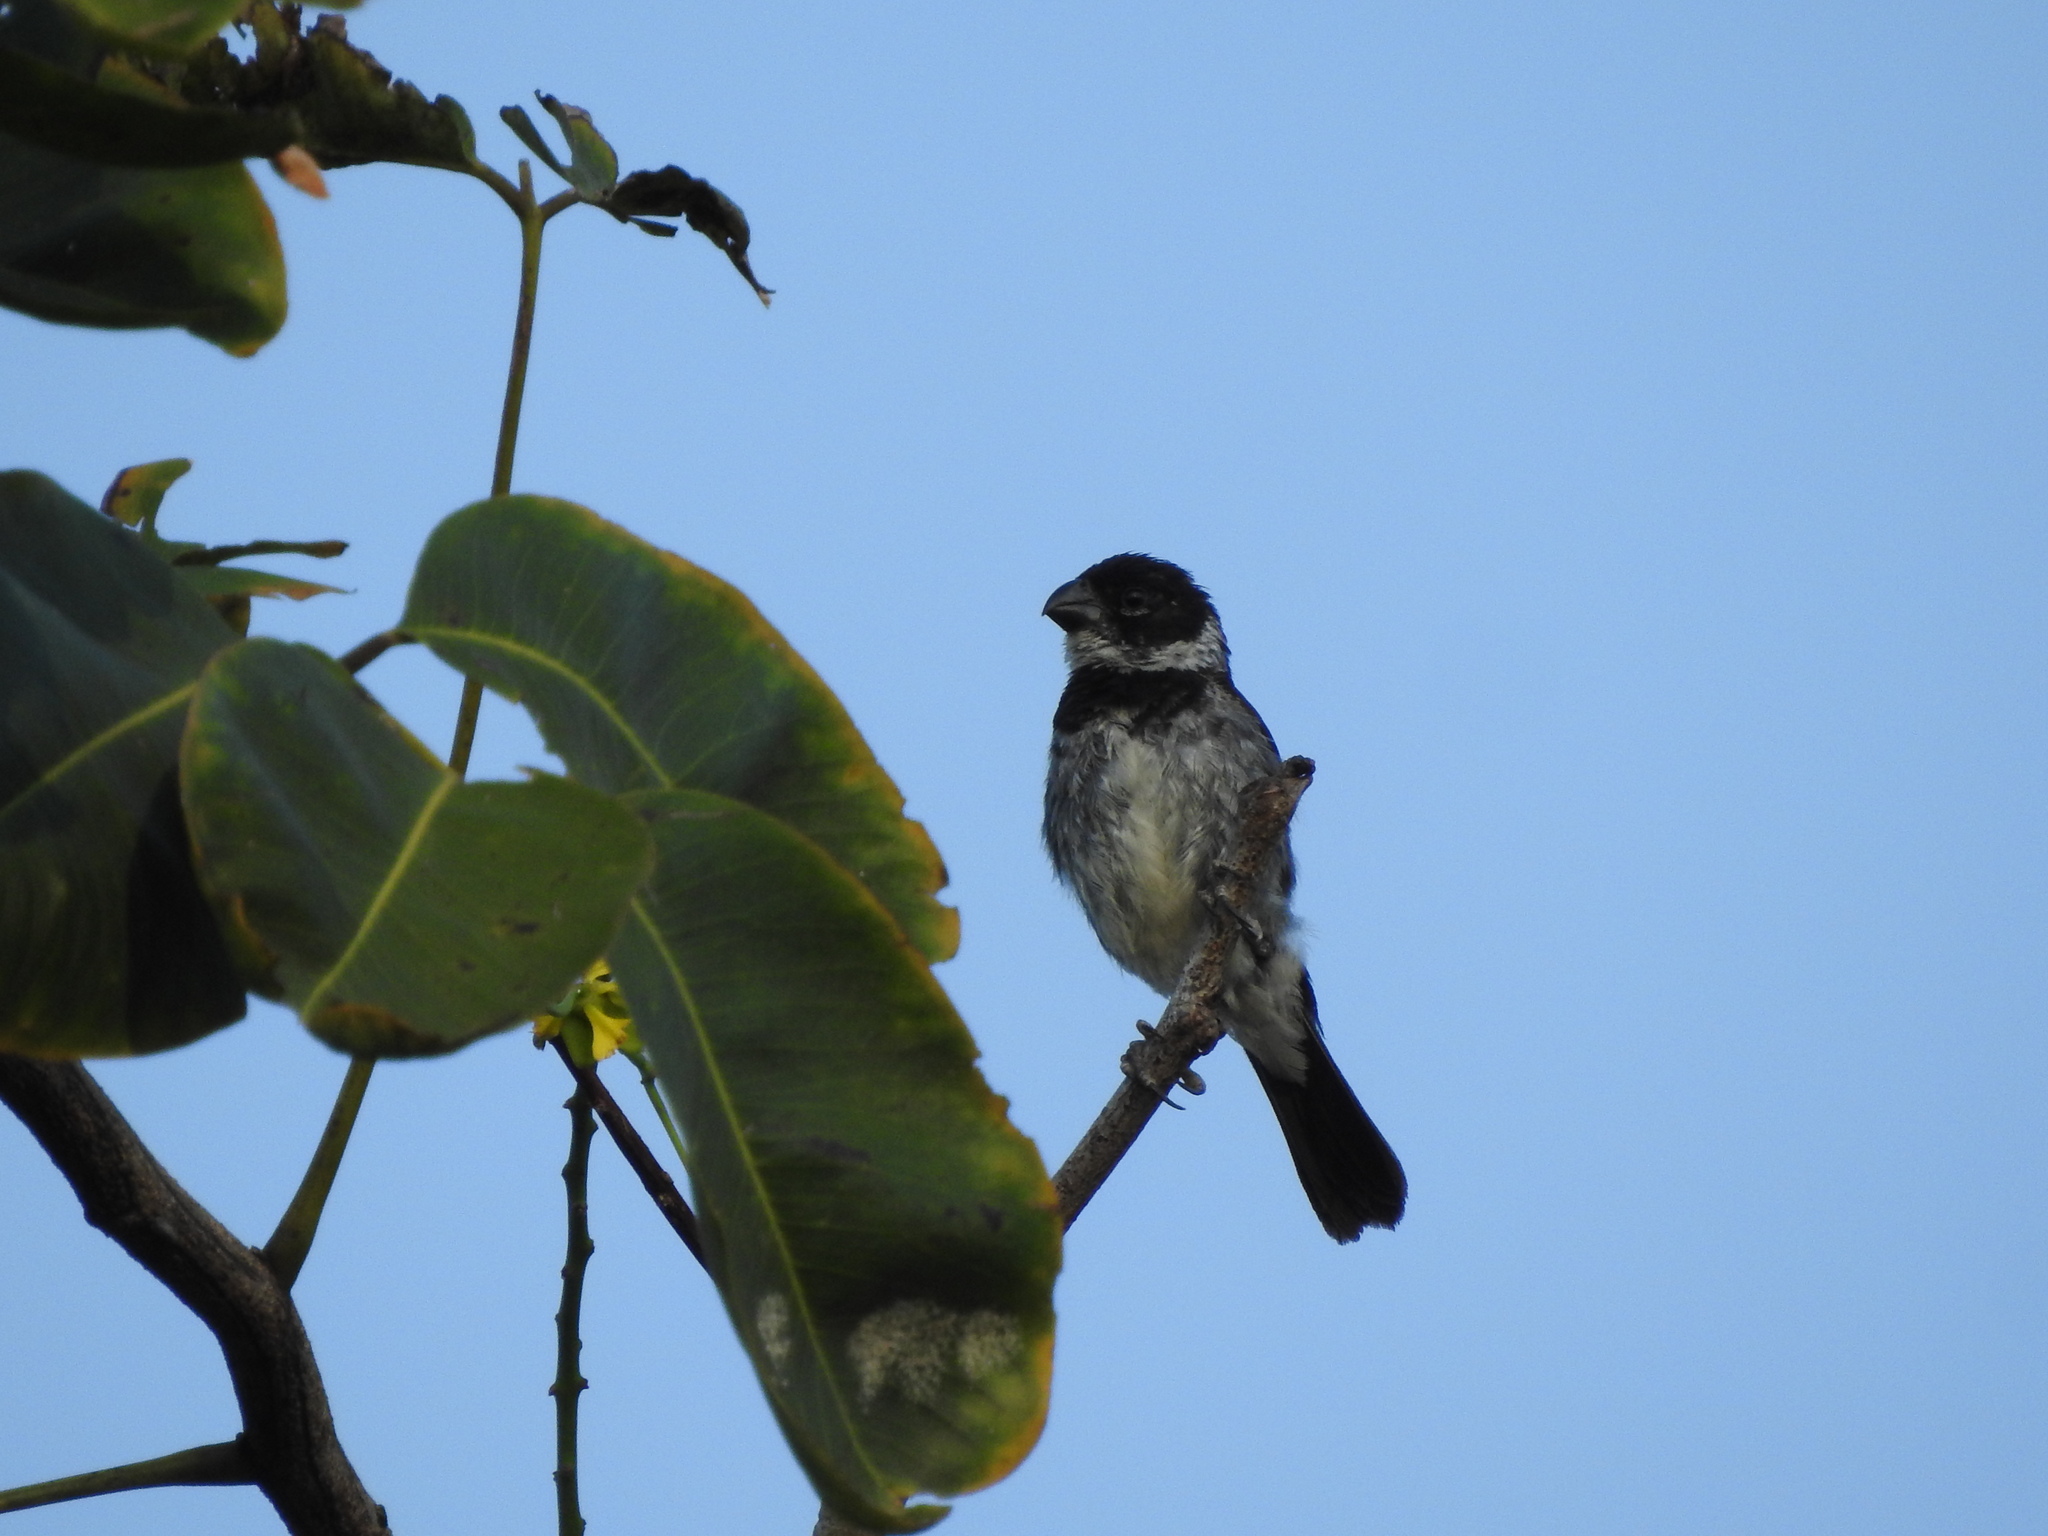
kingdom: Animalia
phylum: Chordata
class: Aves
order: Passeriformes
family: Thraupidae
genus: Sporophila
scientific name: Sporophila morelleti
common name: Morelet's seedeater
